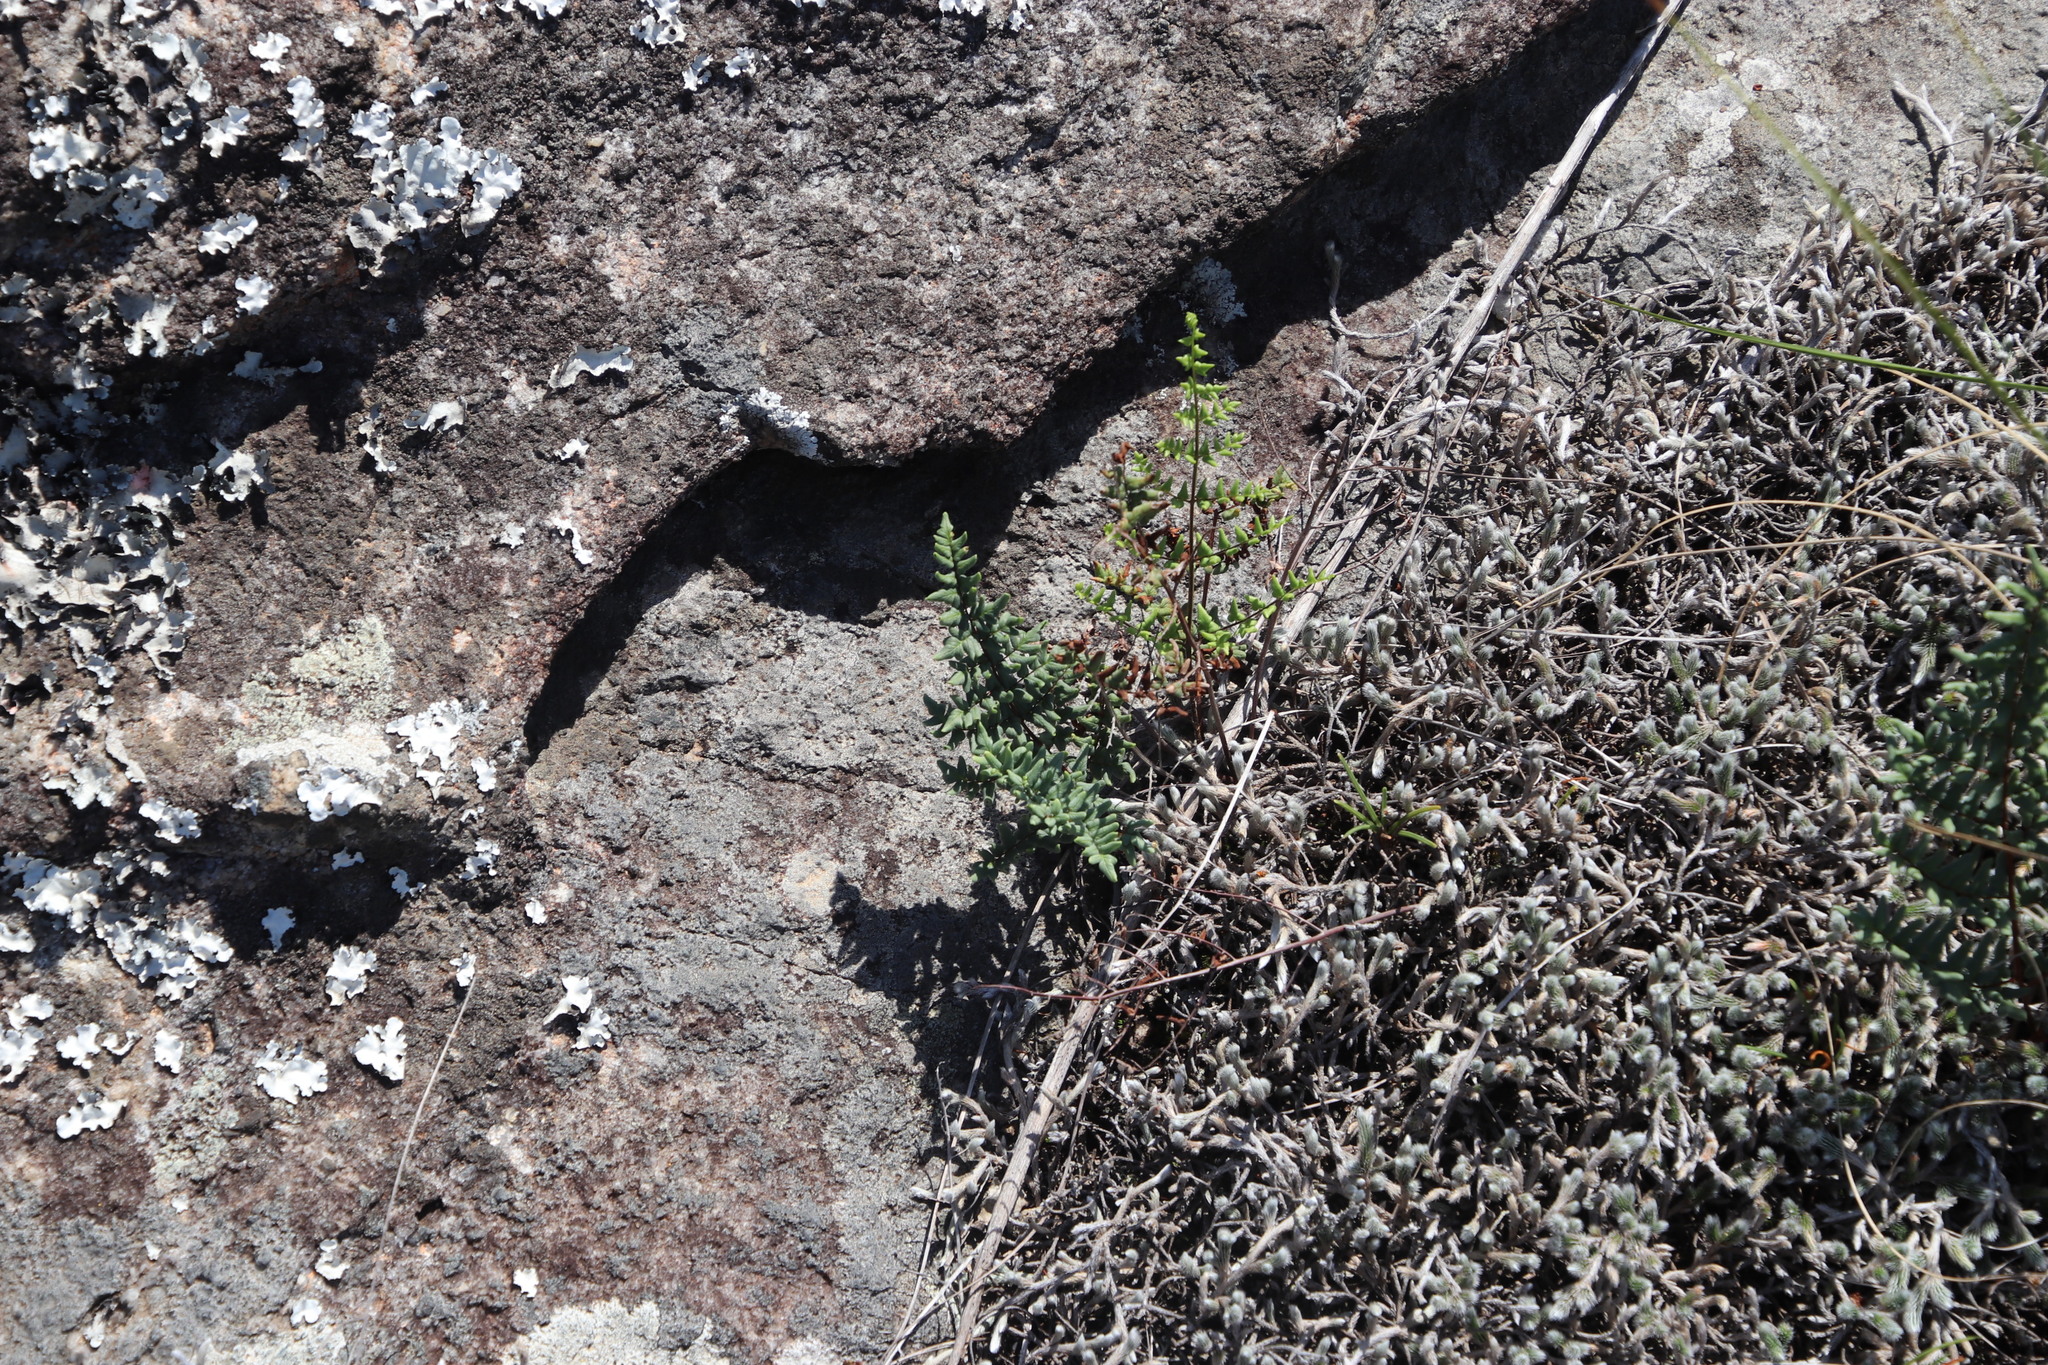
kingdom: Plantae
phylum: Tracheophyta
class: Polypodiopsida
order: Polypodiales
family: Pteridaceae
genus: Cheilanthes
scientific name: Cheilanthes viridis
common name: Green cliffbrake
